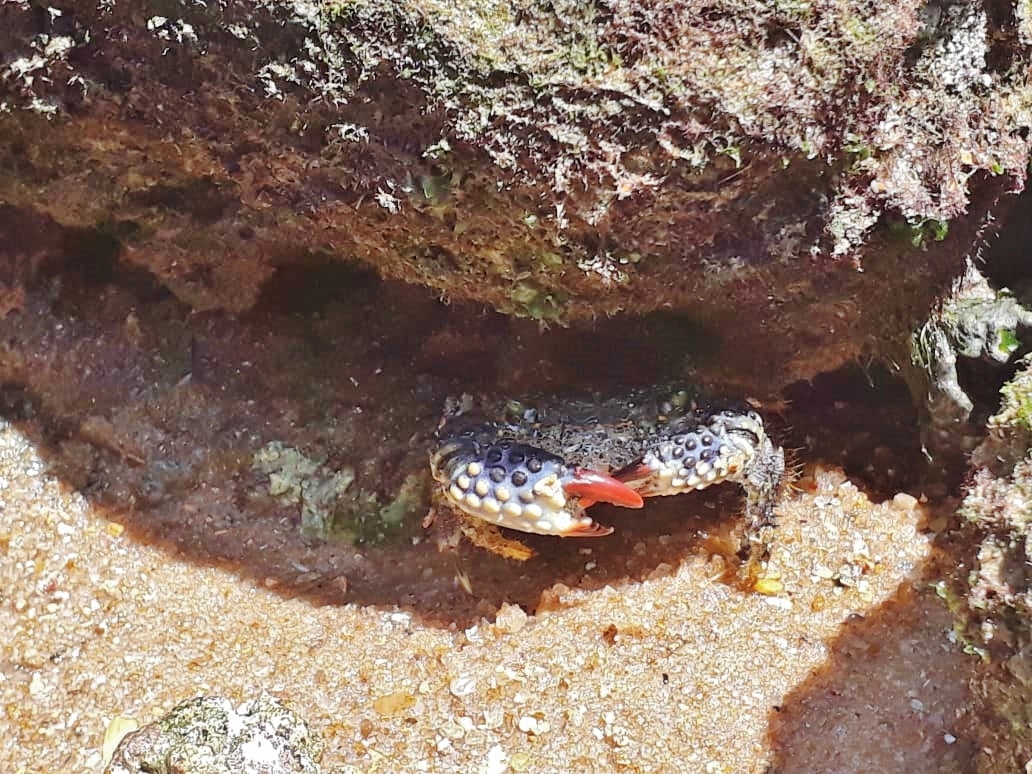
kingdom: Animalia
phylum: Arthropoda
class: Malacostraca
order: Decapoda
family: Eriphiidae
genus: Eriphia
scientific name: Eriphia gonagra
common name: Calico crab
